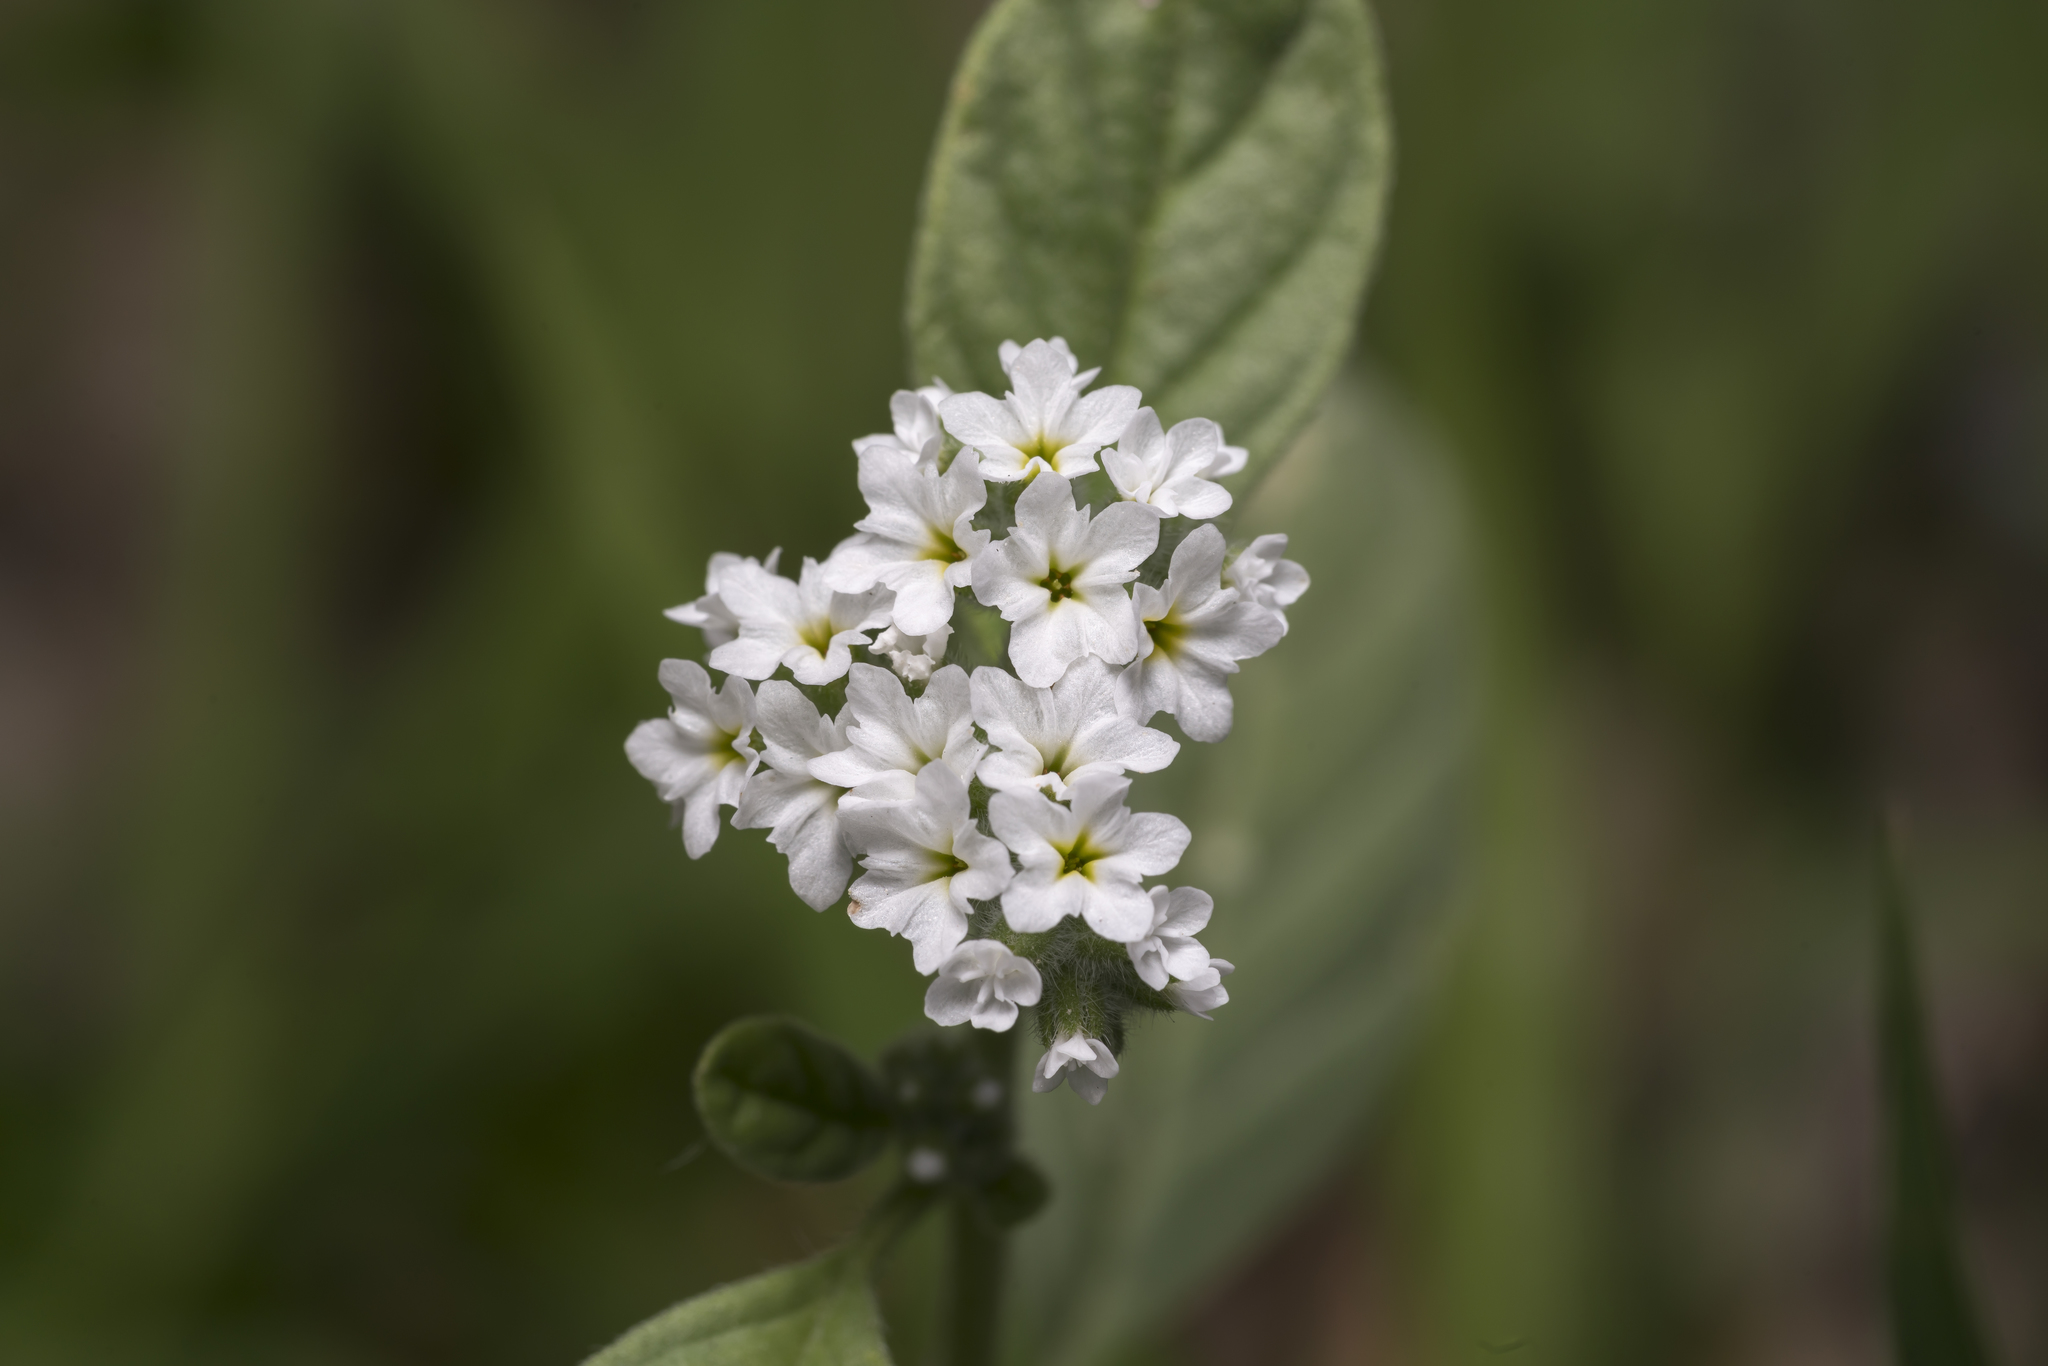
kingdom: Plantae
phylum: Tracheophyta
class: Magnoliopsida
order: Boraginales
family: Heliotropiaceae
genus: Heliotropium
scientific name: Heliotropium europaeum
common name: European heliotrope
